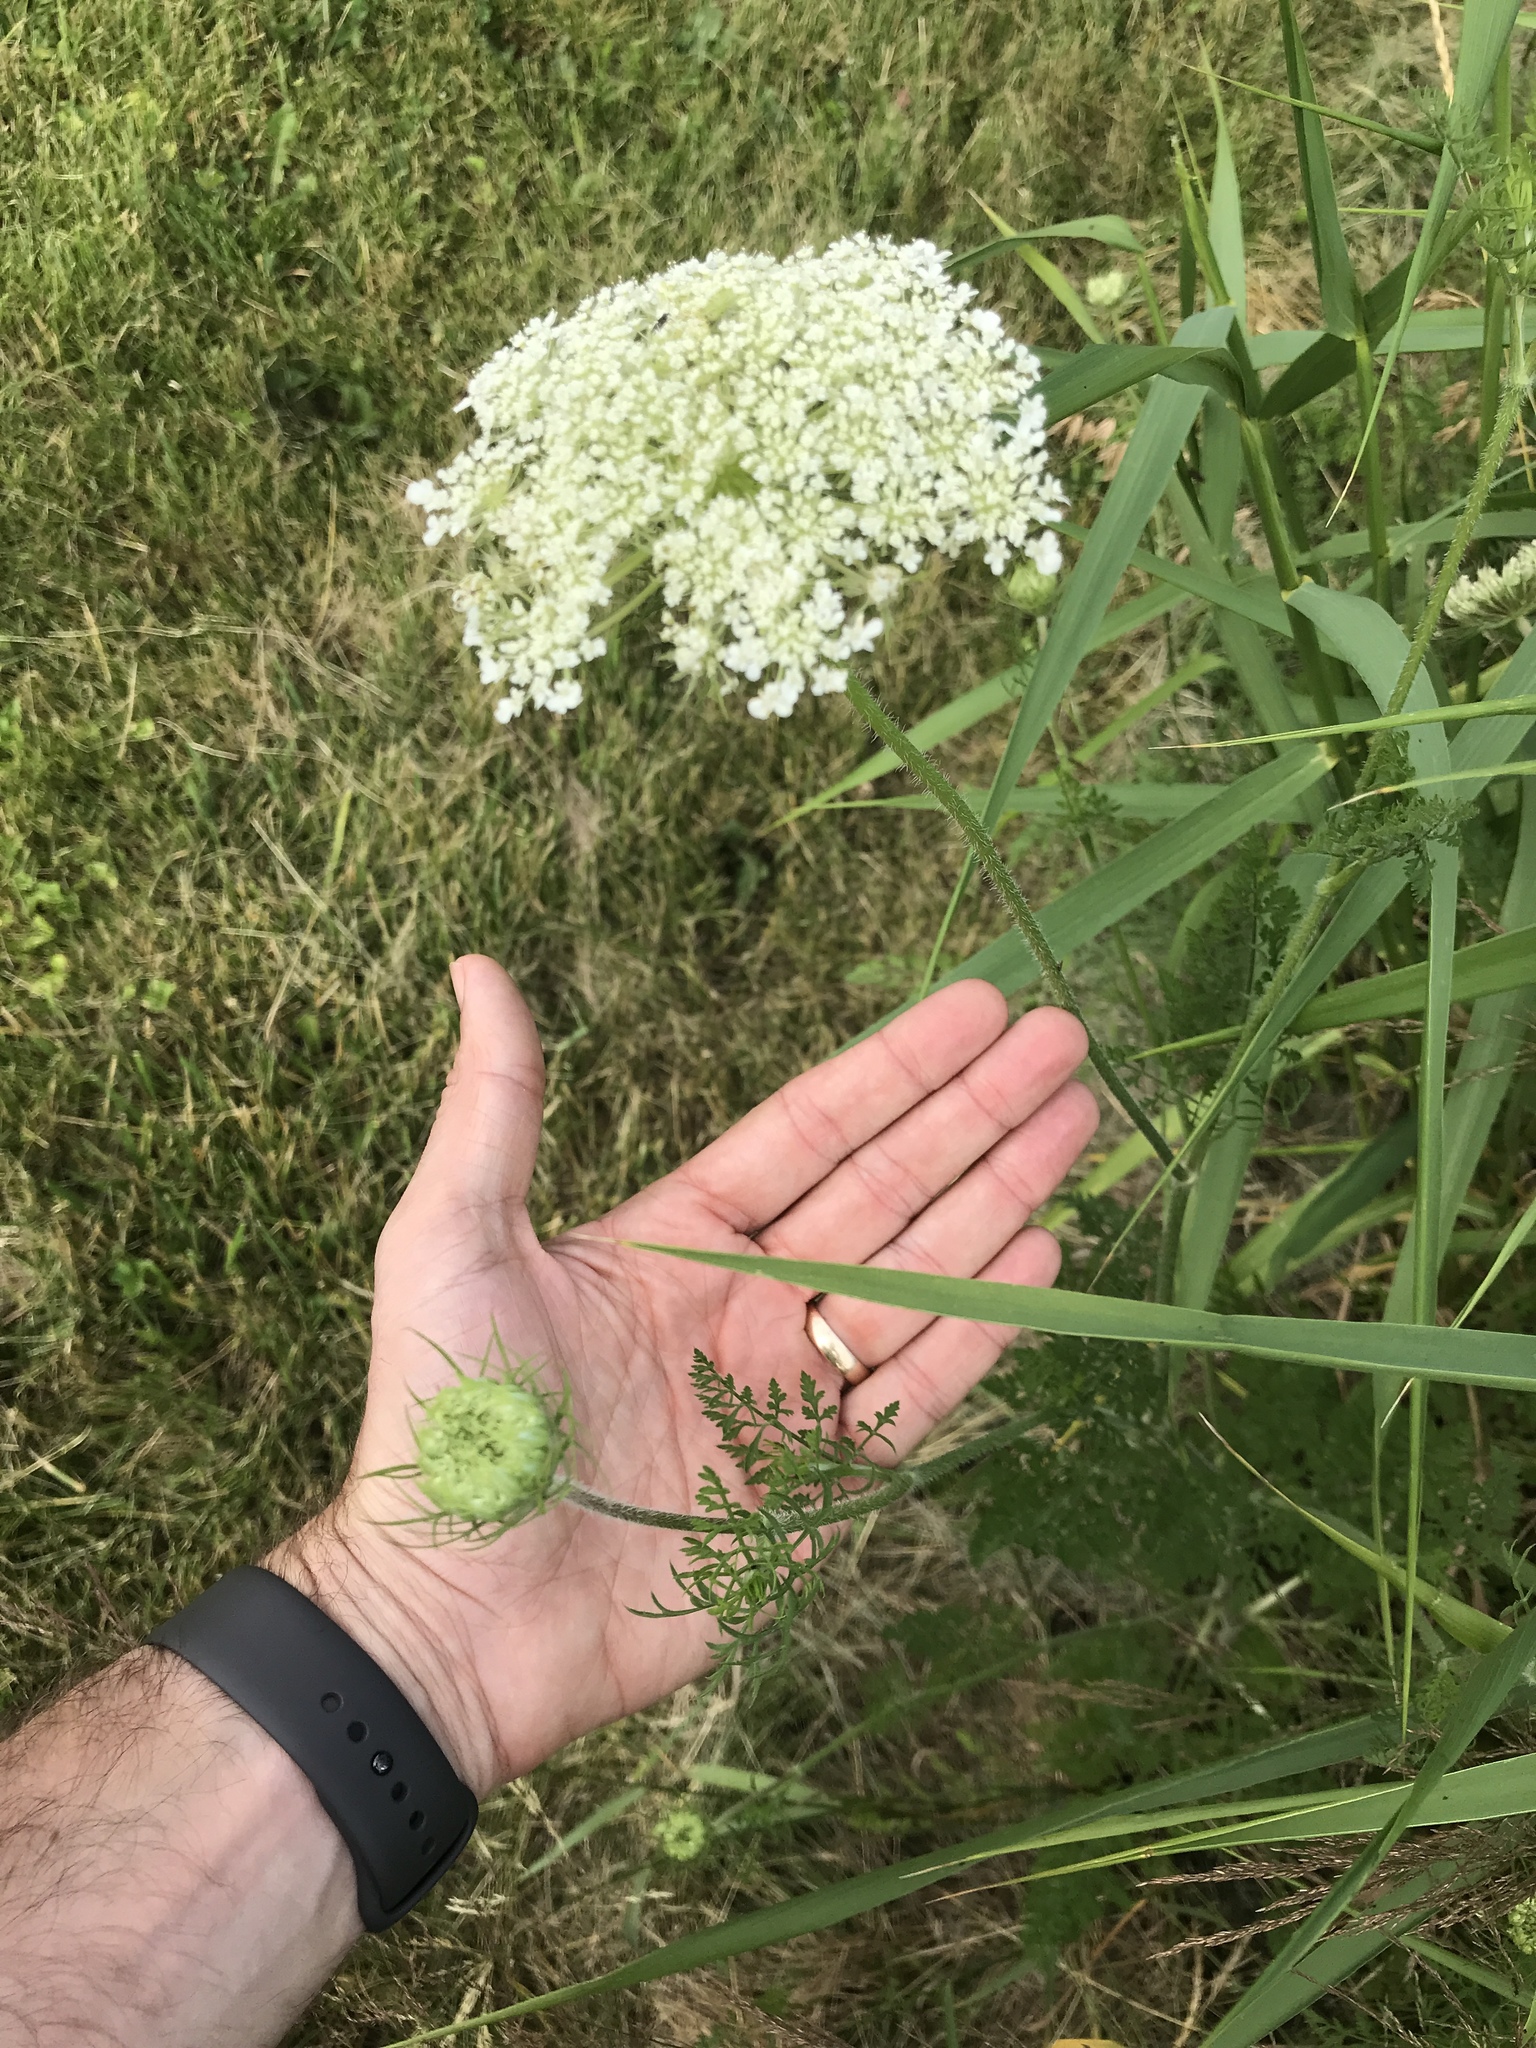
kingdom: Plantae
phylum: Tracheophyta
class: Magnoliopsida
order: Apiales
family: Apiaceae
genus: Daucus
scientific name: Daucus carota
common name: Wild carrot
